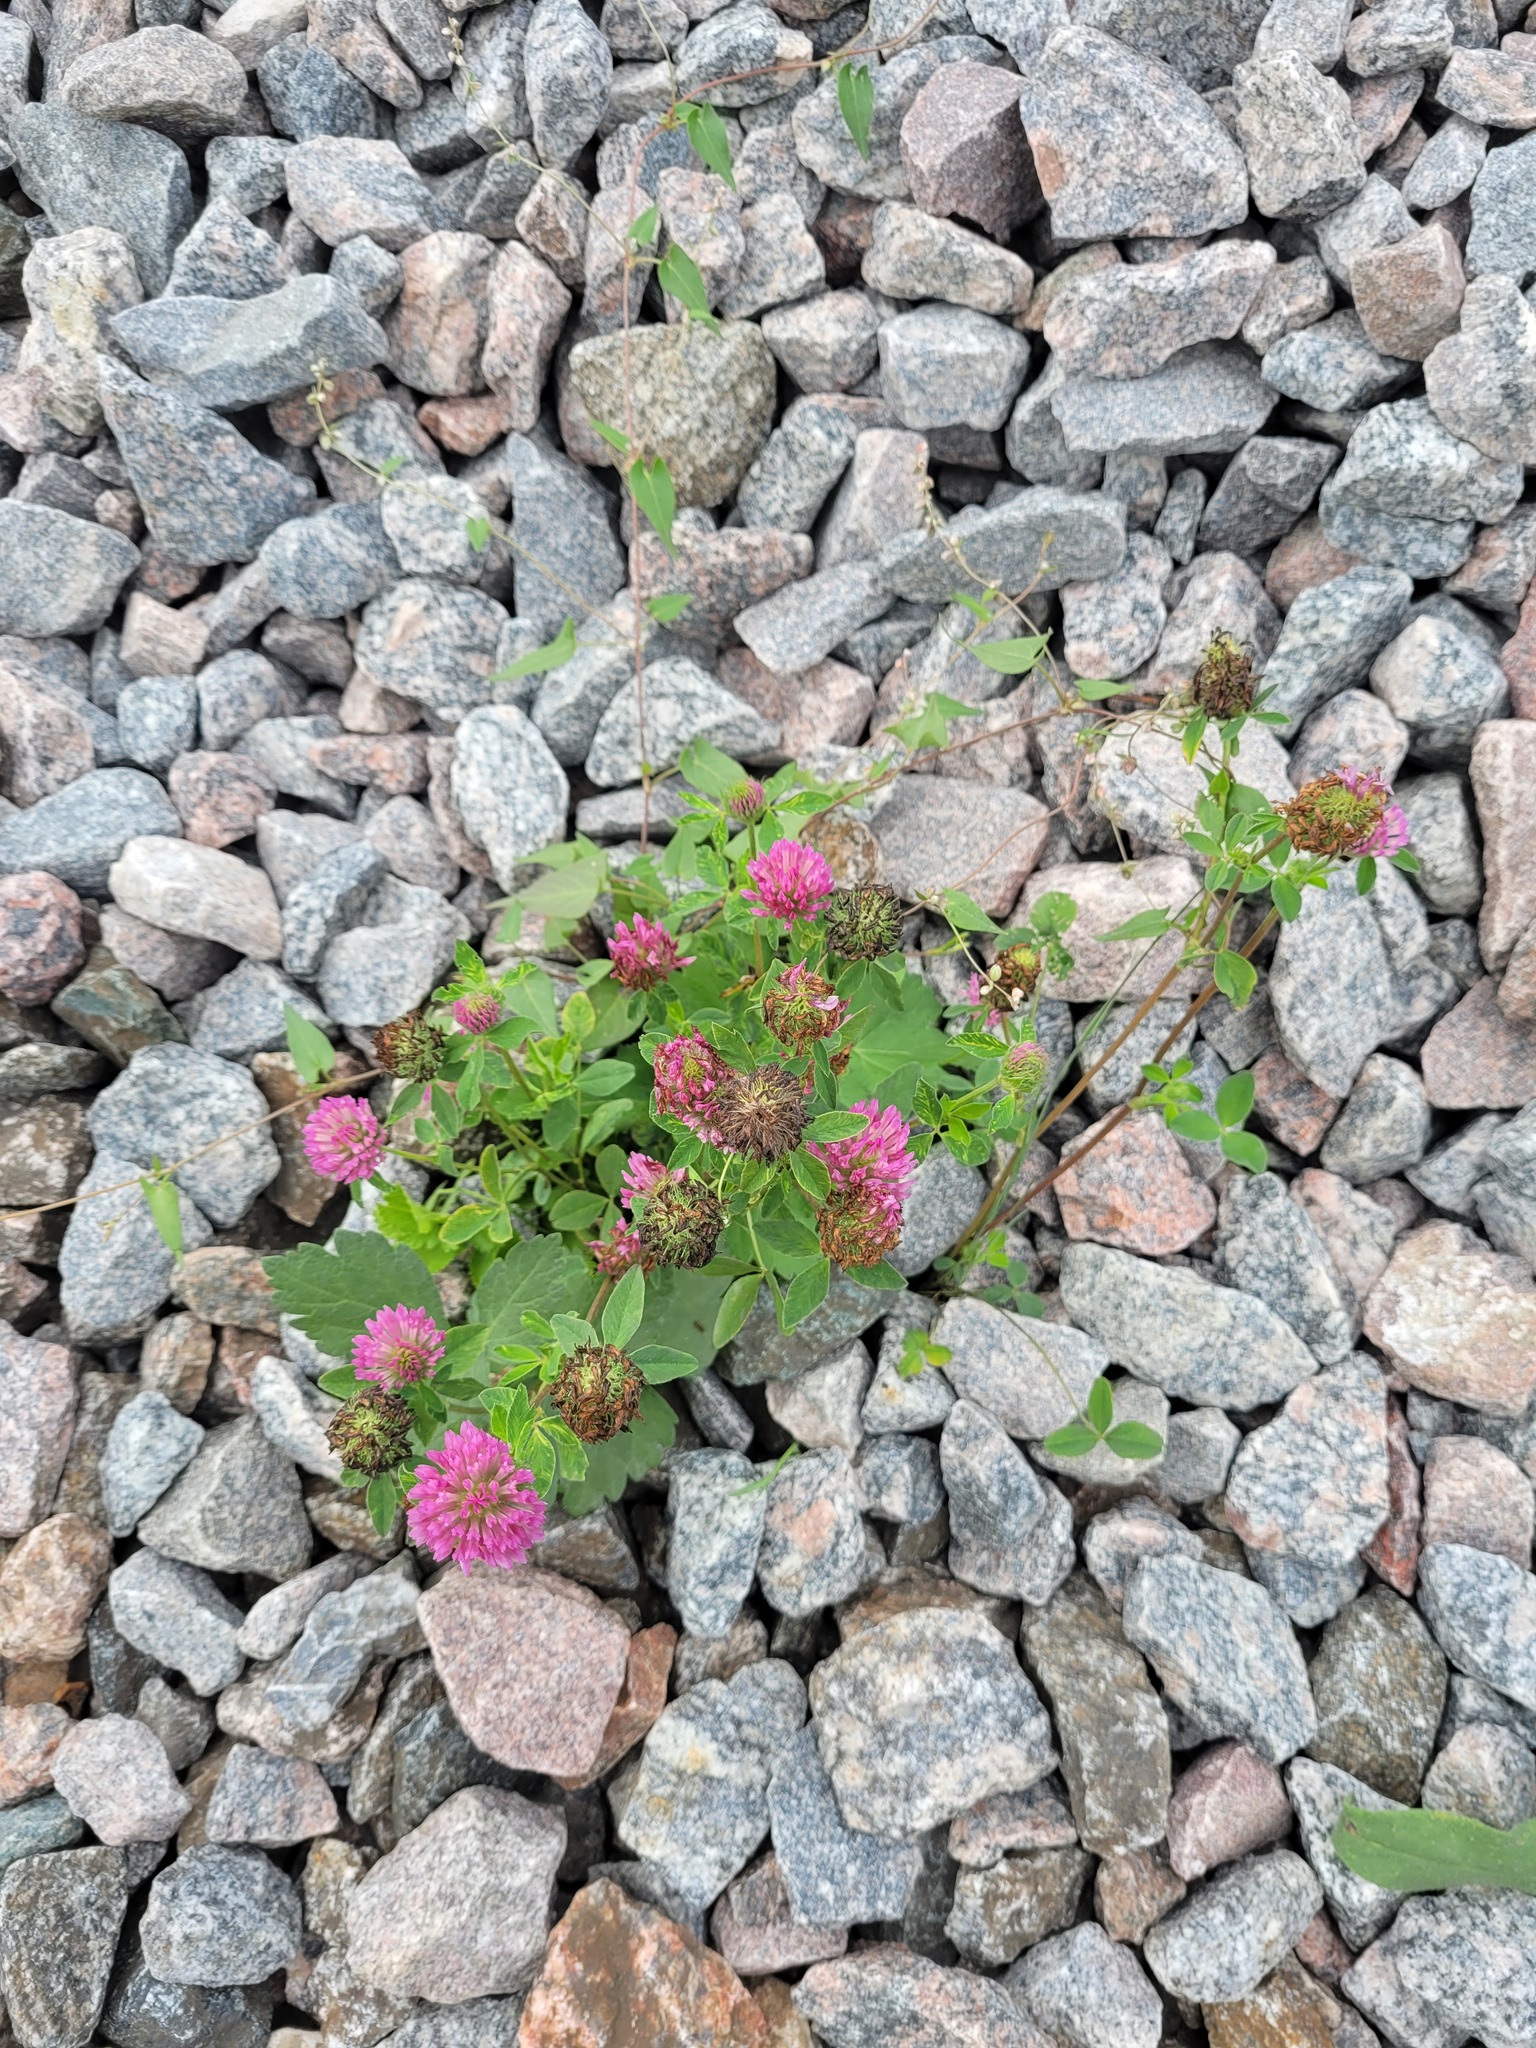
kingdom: Plantae
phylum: Tracheophyta
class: Magnoliopsida
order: Fabales
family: Fabaceae
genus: Trifolium
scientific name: Trifolium pratense
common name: Red clover
